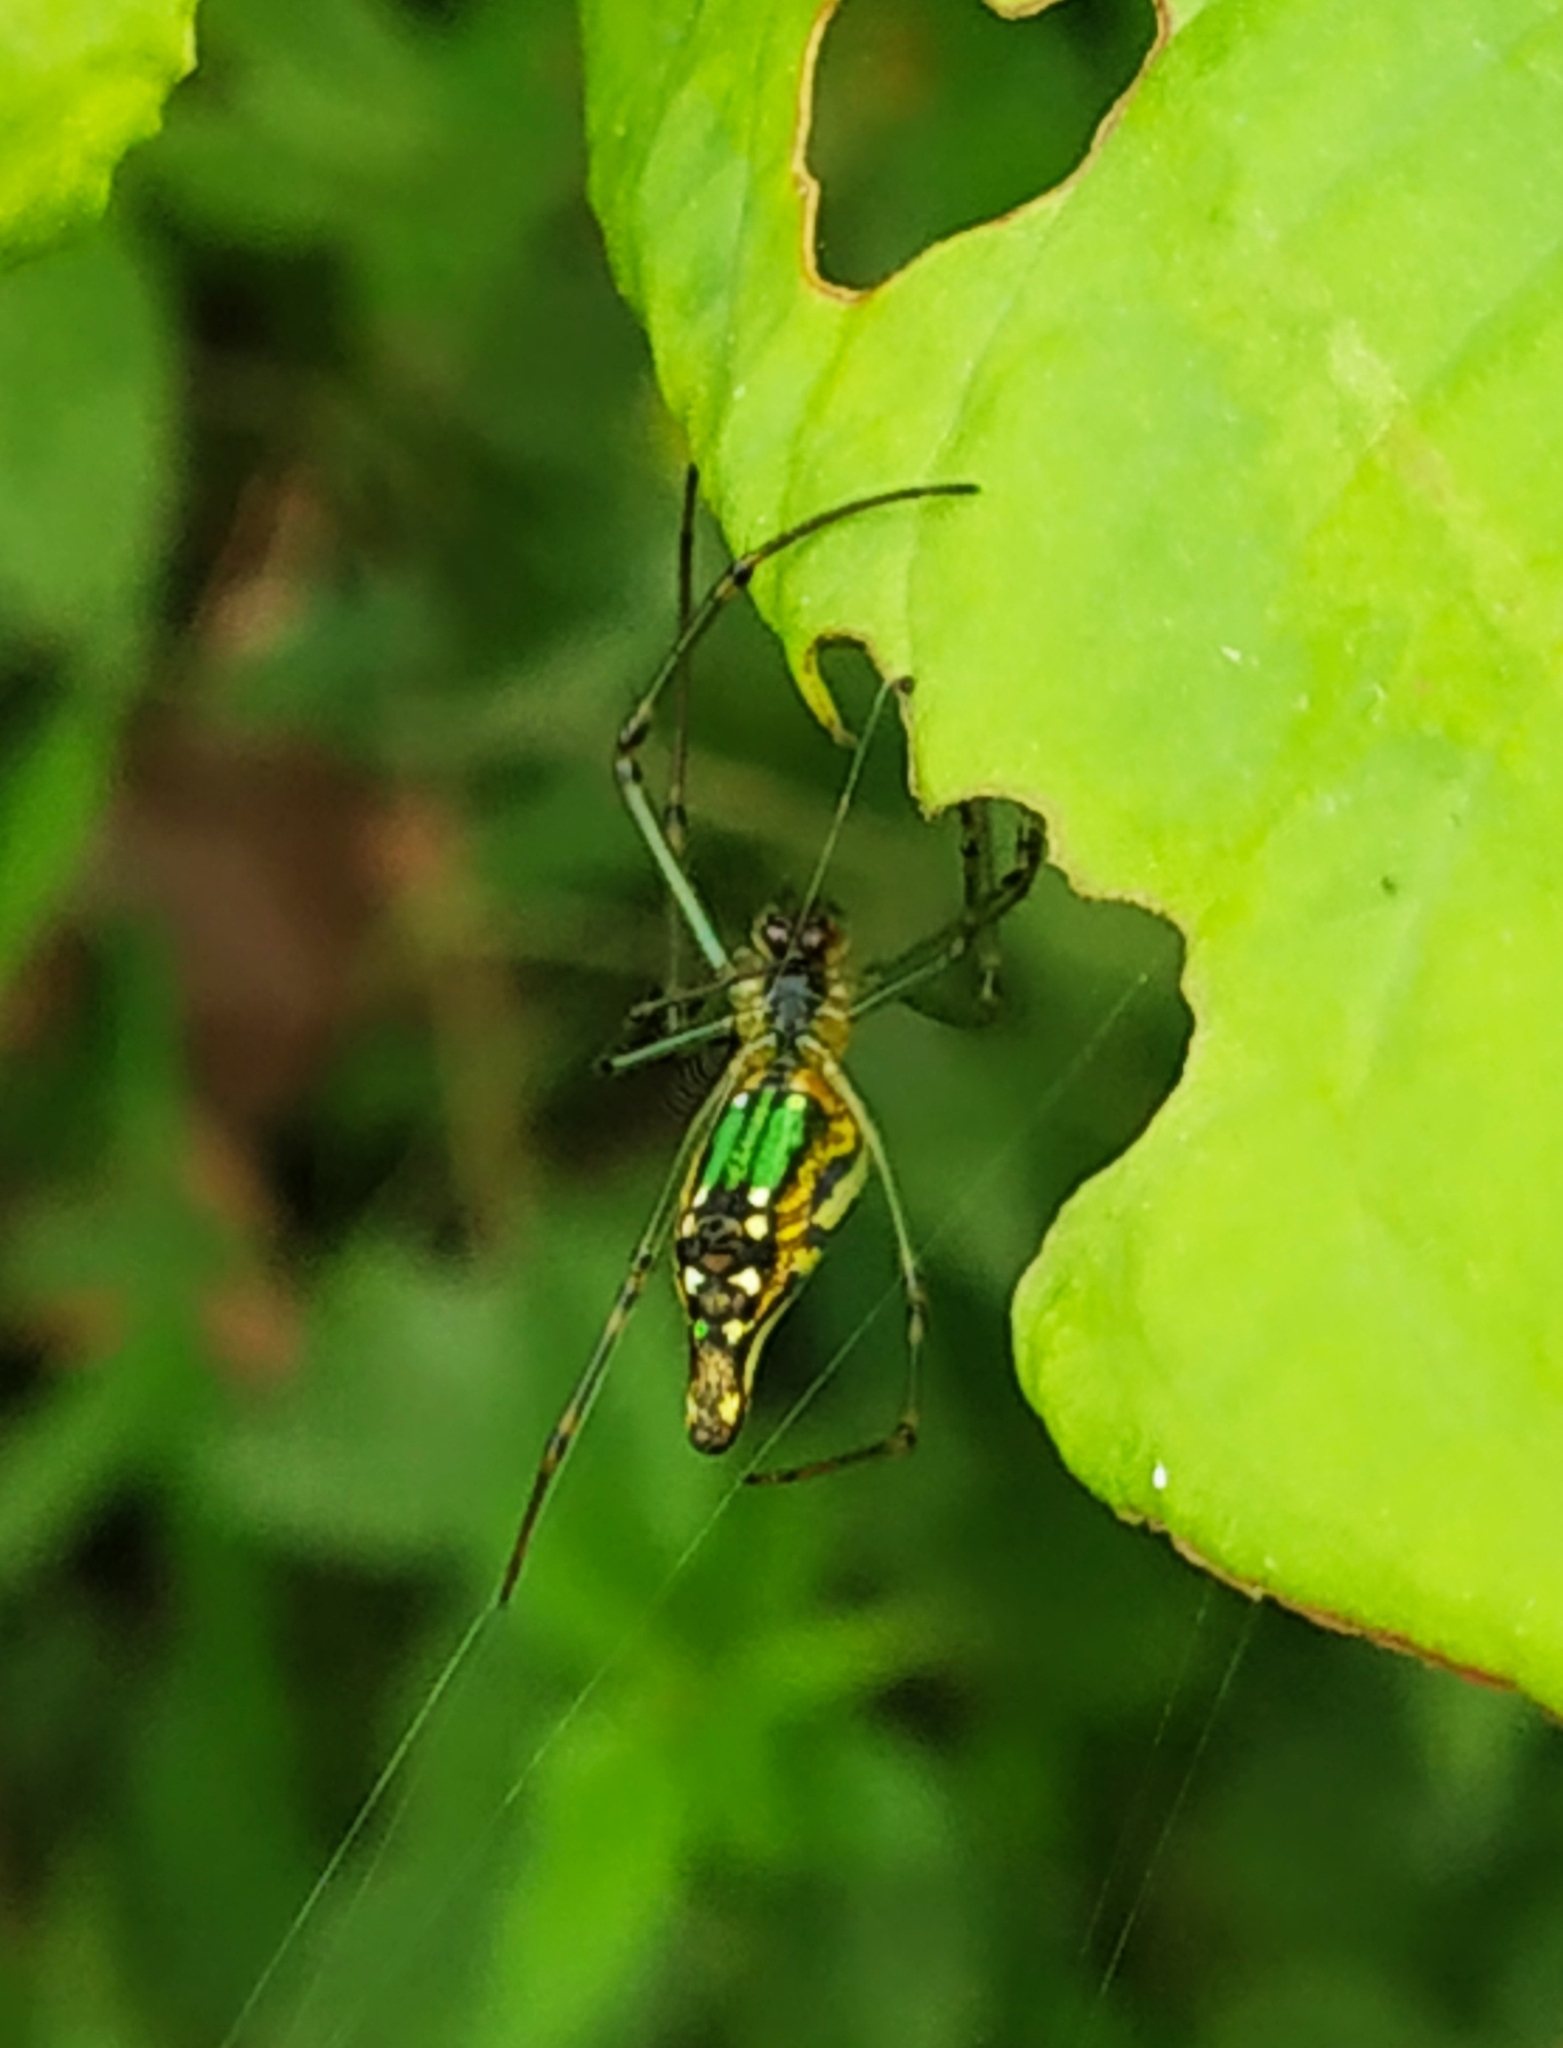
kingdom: Animalia
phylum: Arthropoda
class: Arachnida
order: Araneae
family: Tetragnathidae
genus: Leucauge
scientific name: Leucauge decorata
